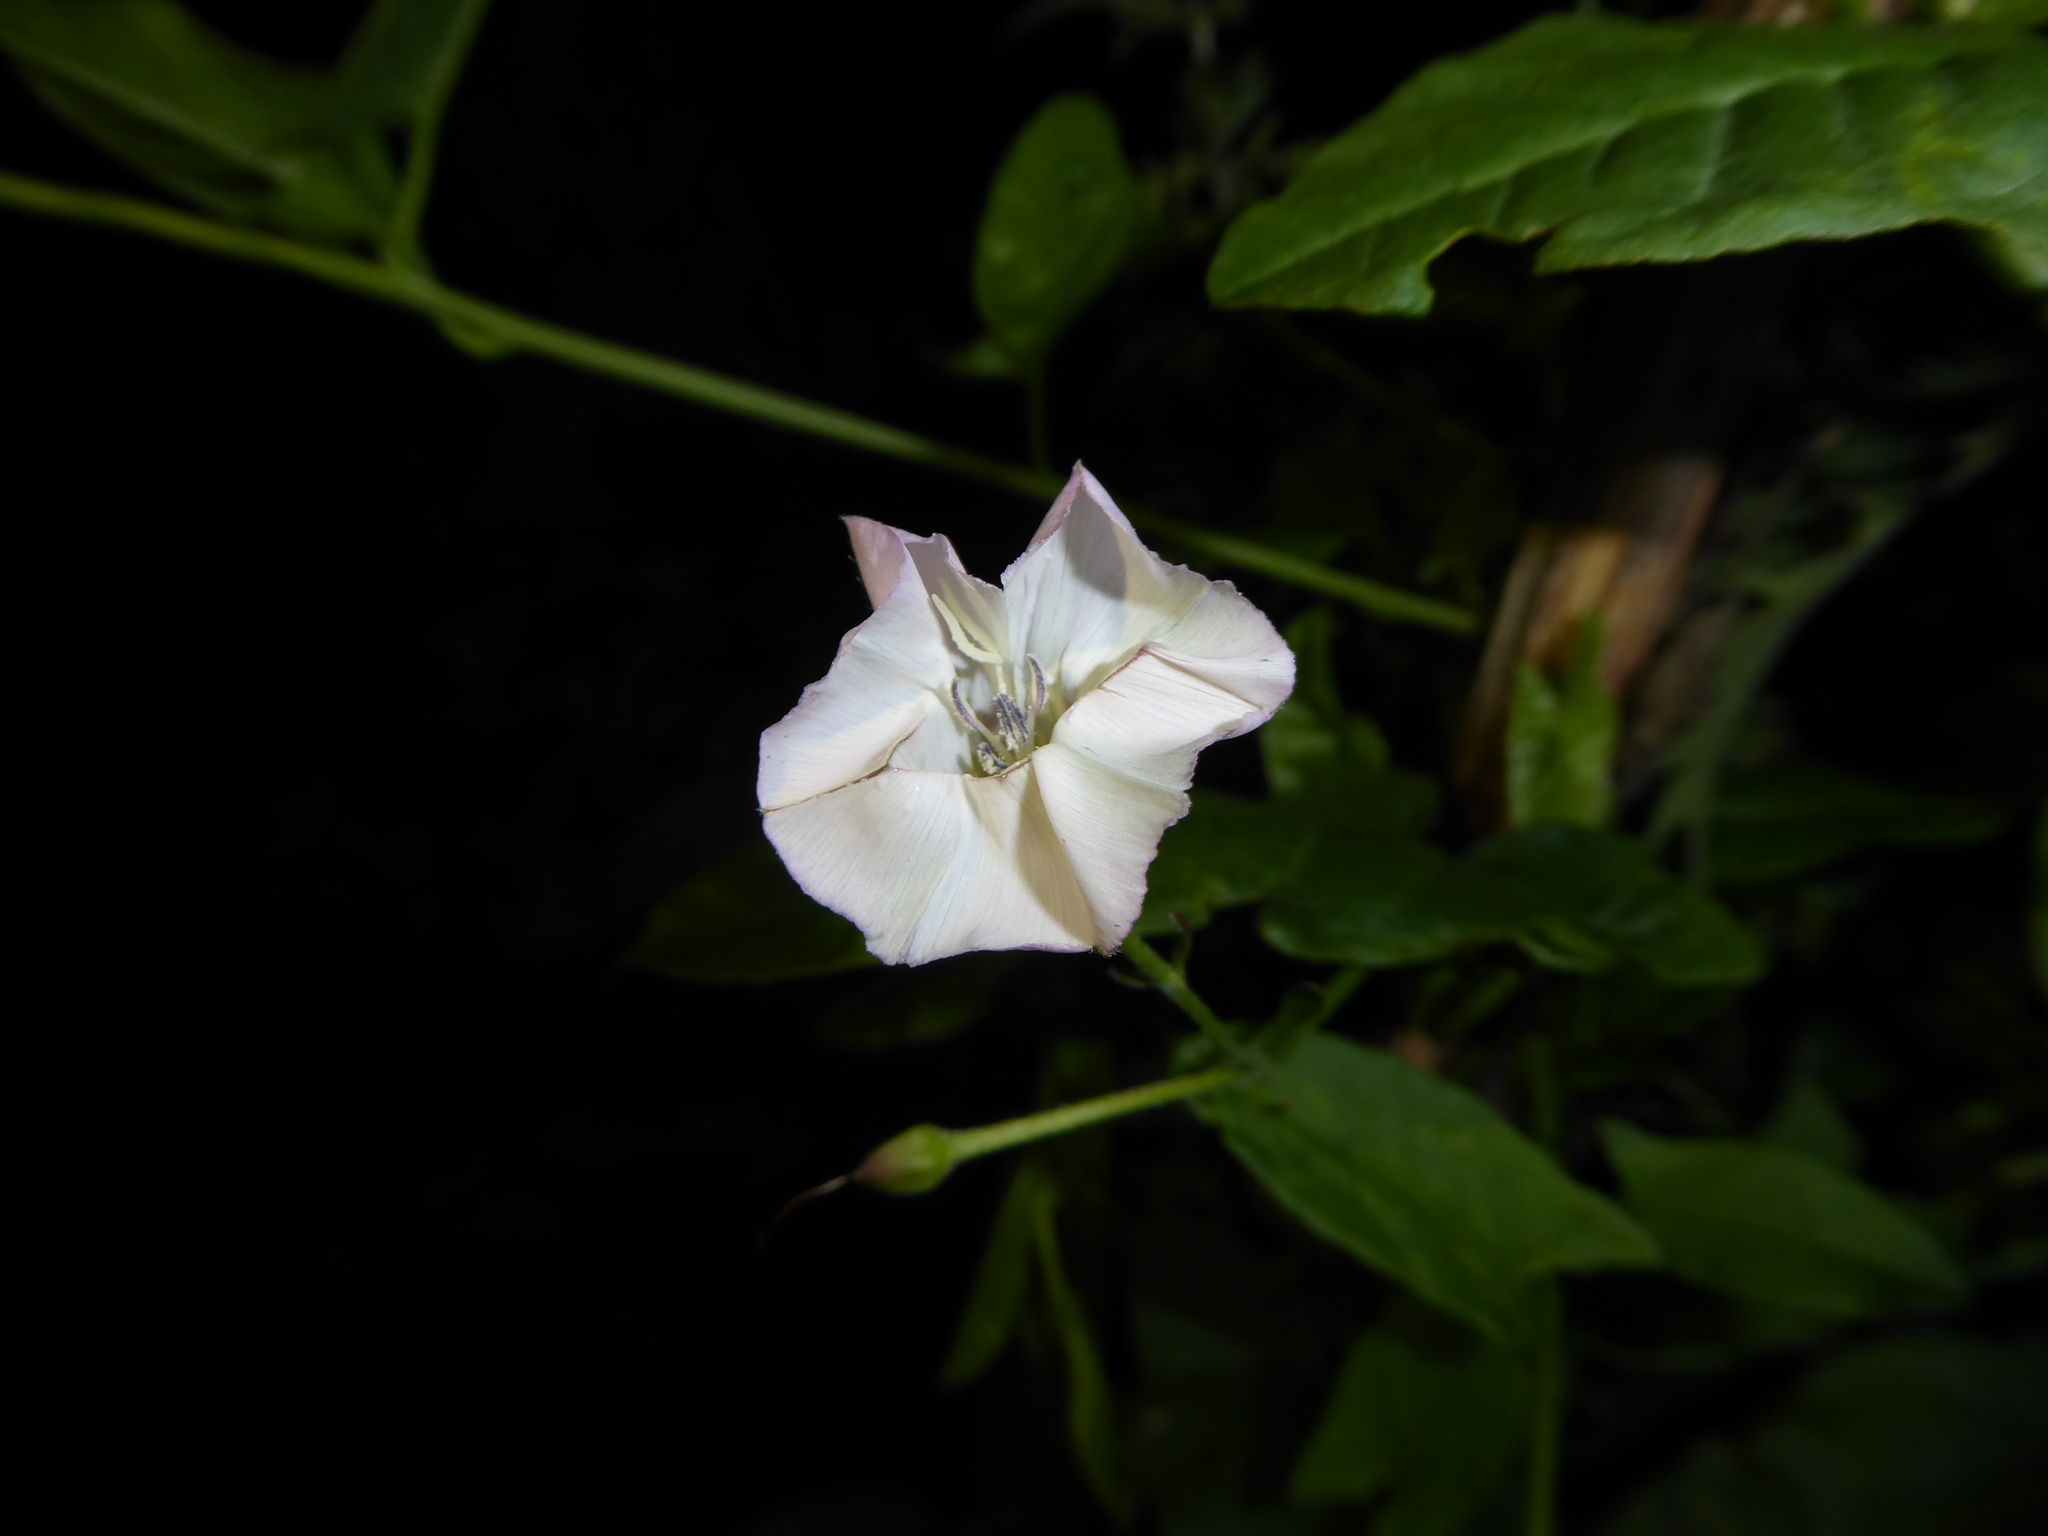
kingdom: Plantae
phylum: Tracheophyta
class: Magnoliopsida
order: Solanales
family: Convolvulaceae
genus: Convolvulus
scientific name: Convolvulus arvensis
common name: Field bindweed
